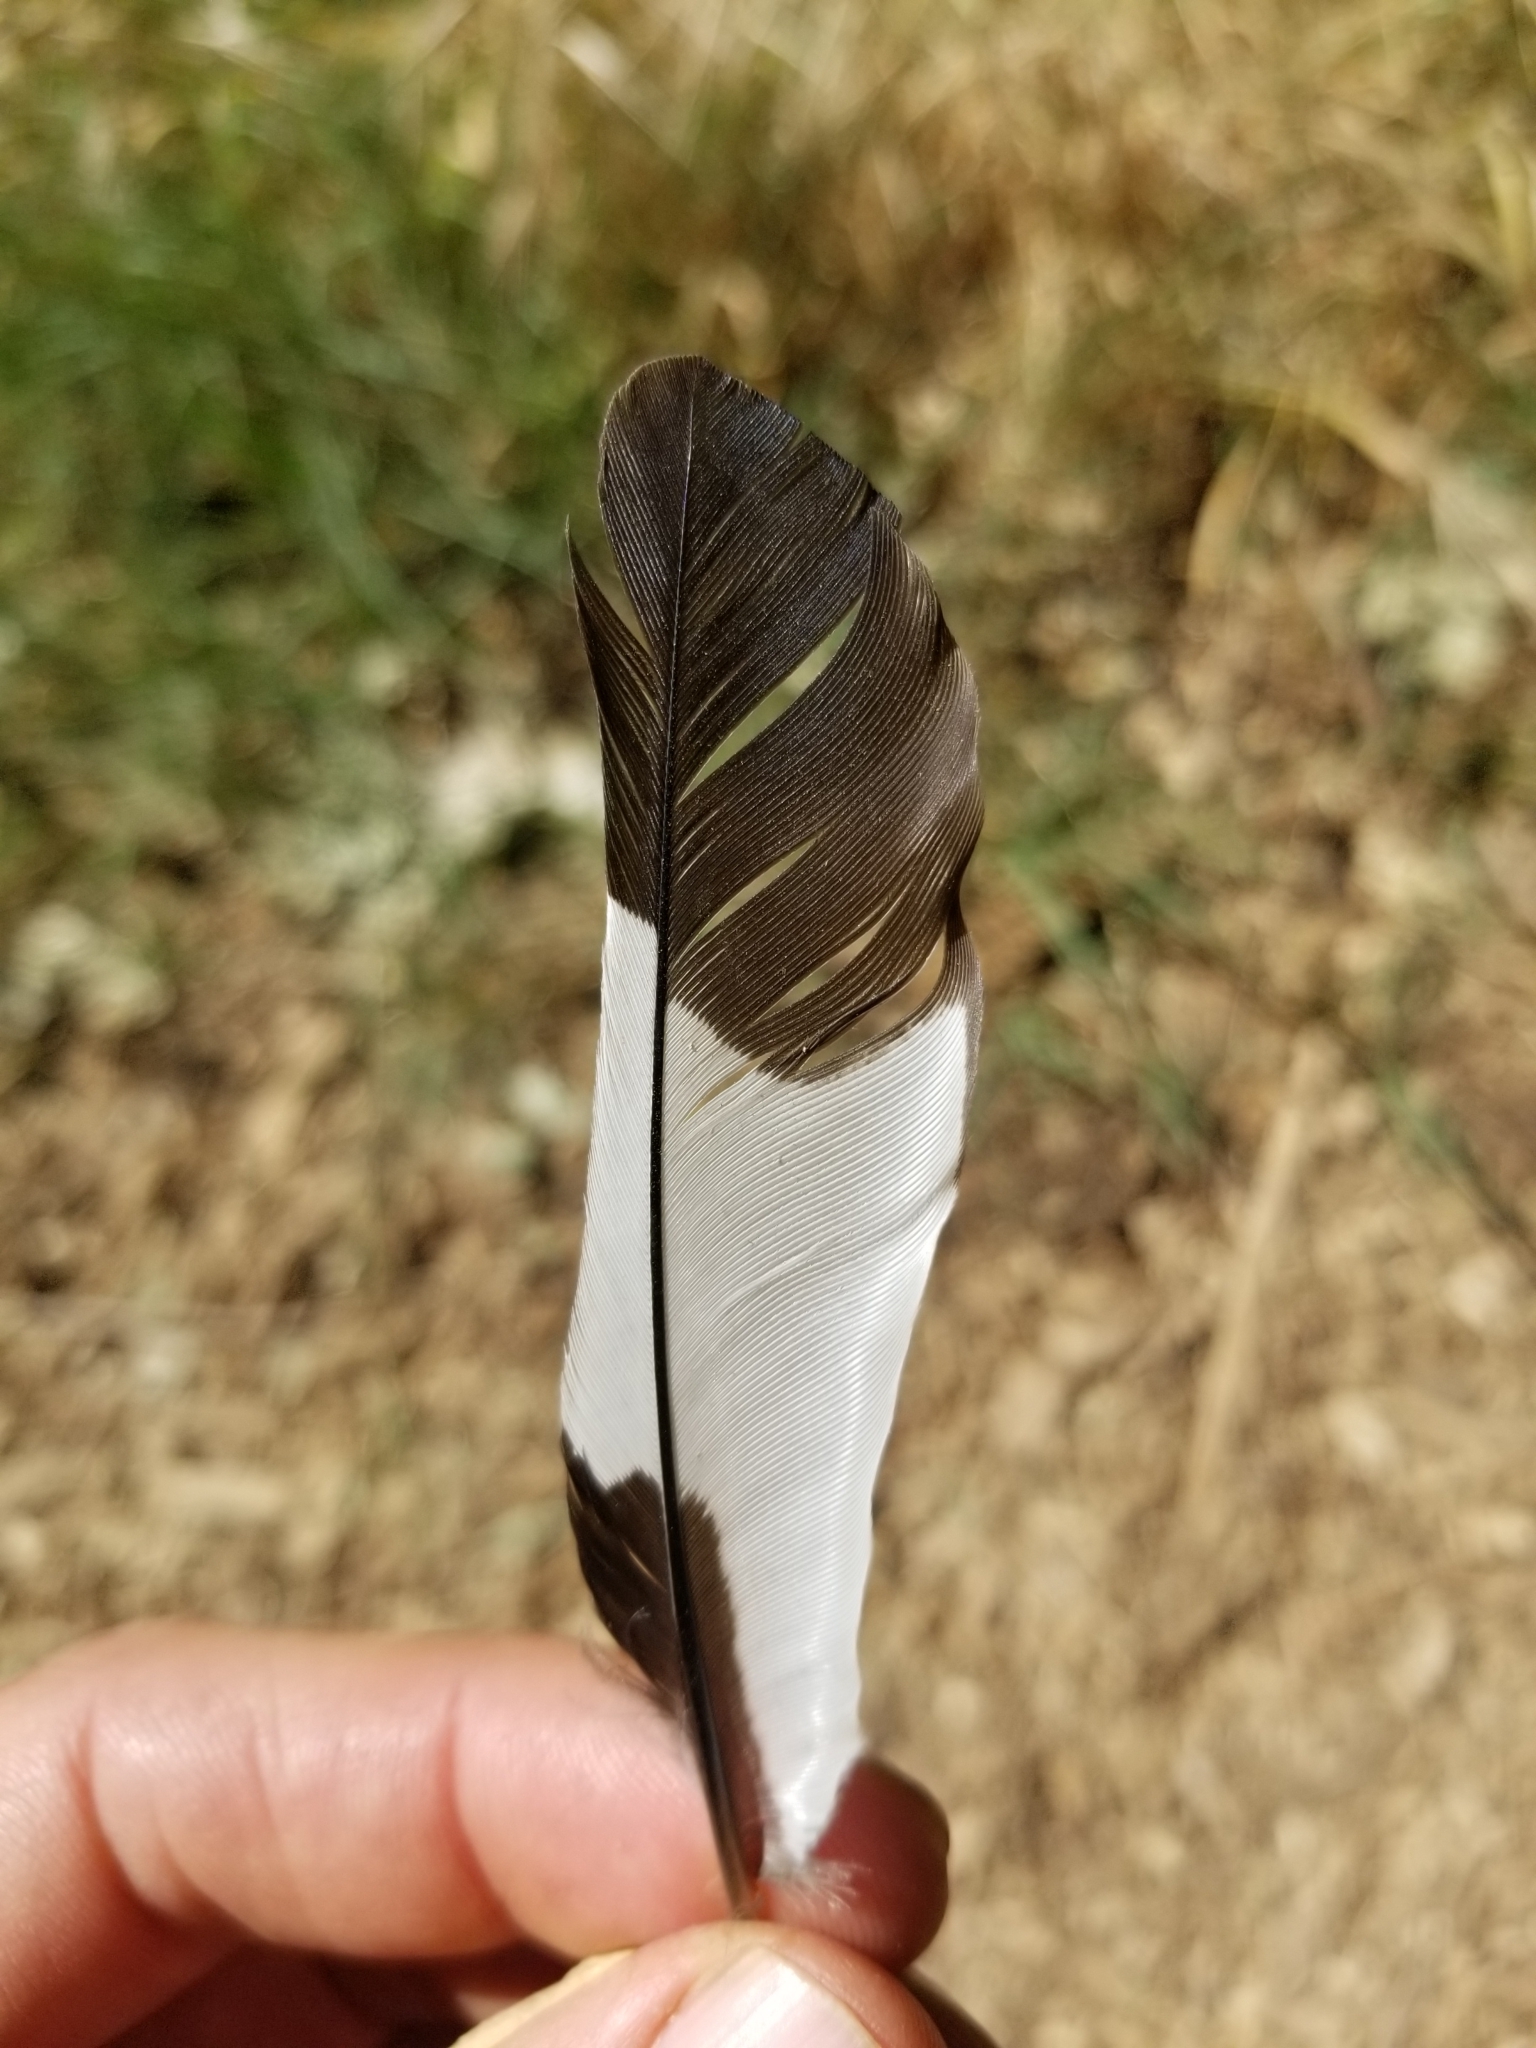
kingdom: Animalia
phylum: Chordata
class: Aves
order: Piciformes
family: Picidae
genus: Melanerpes
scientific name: Melanerpes formicivorus
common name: Acorn woodpecker
